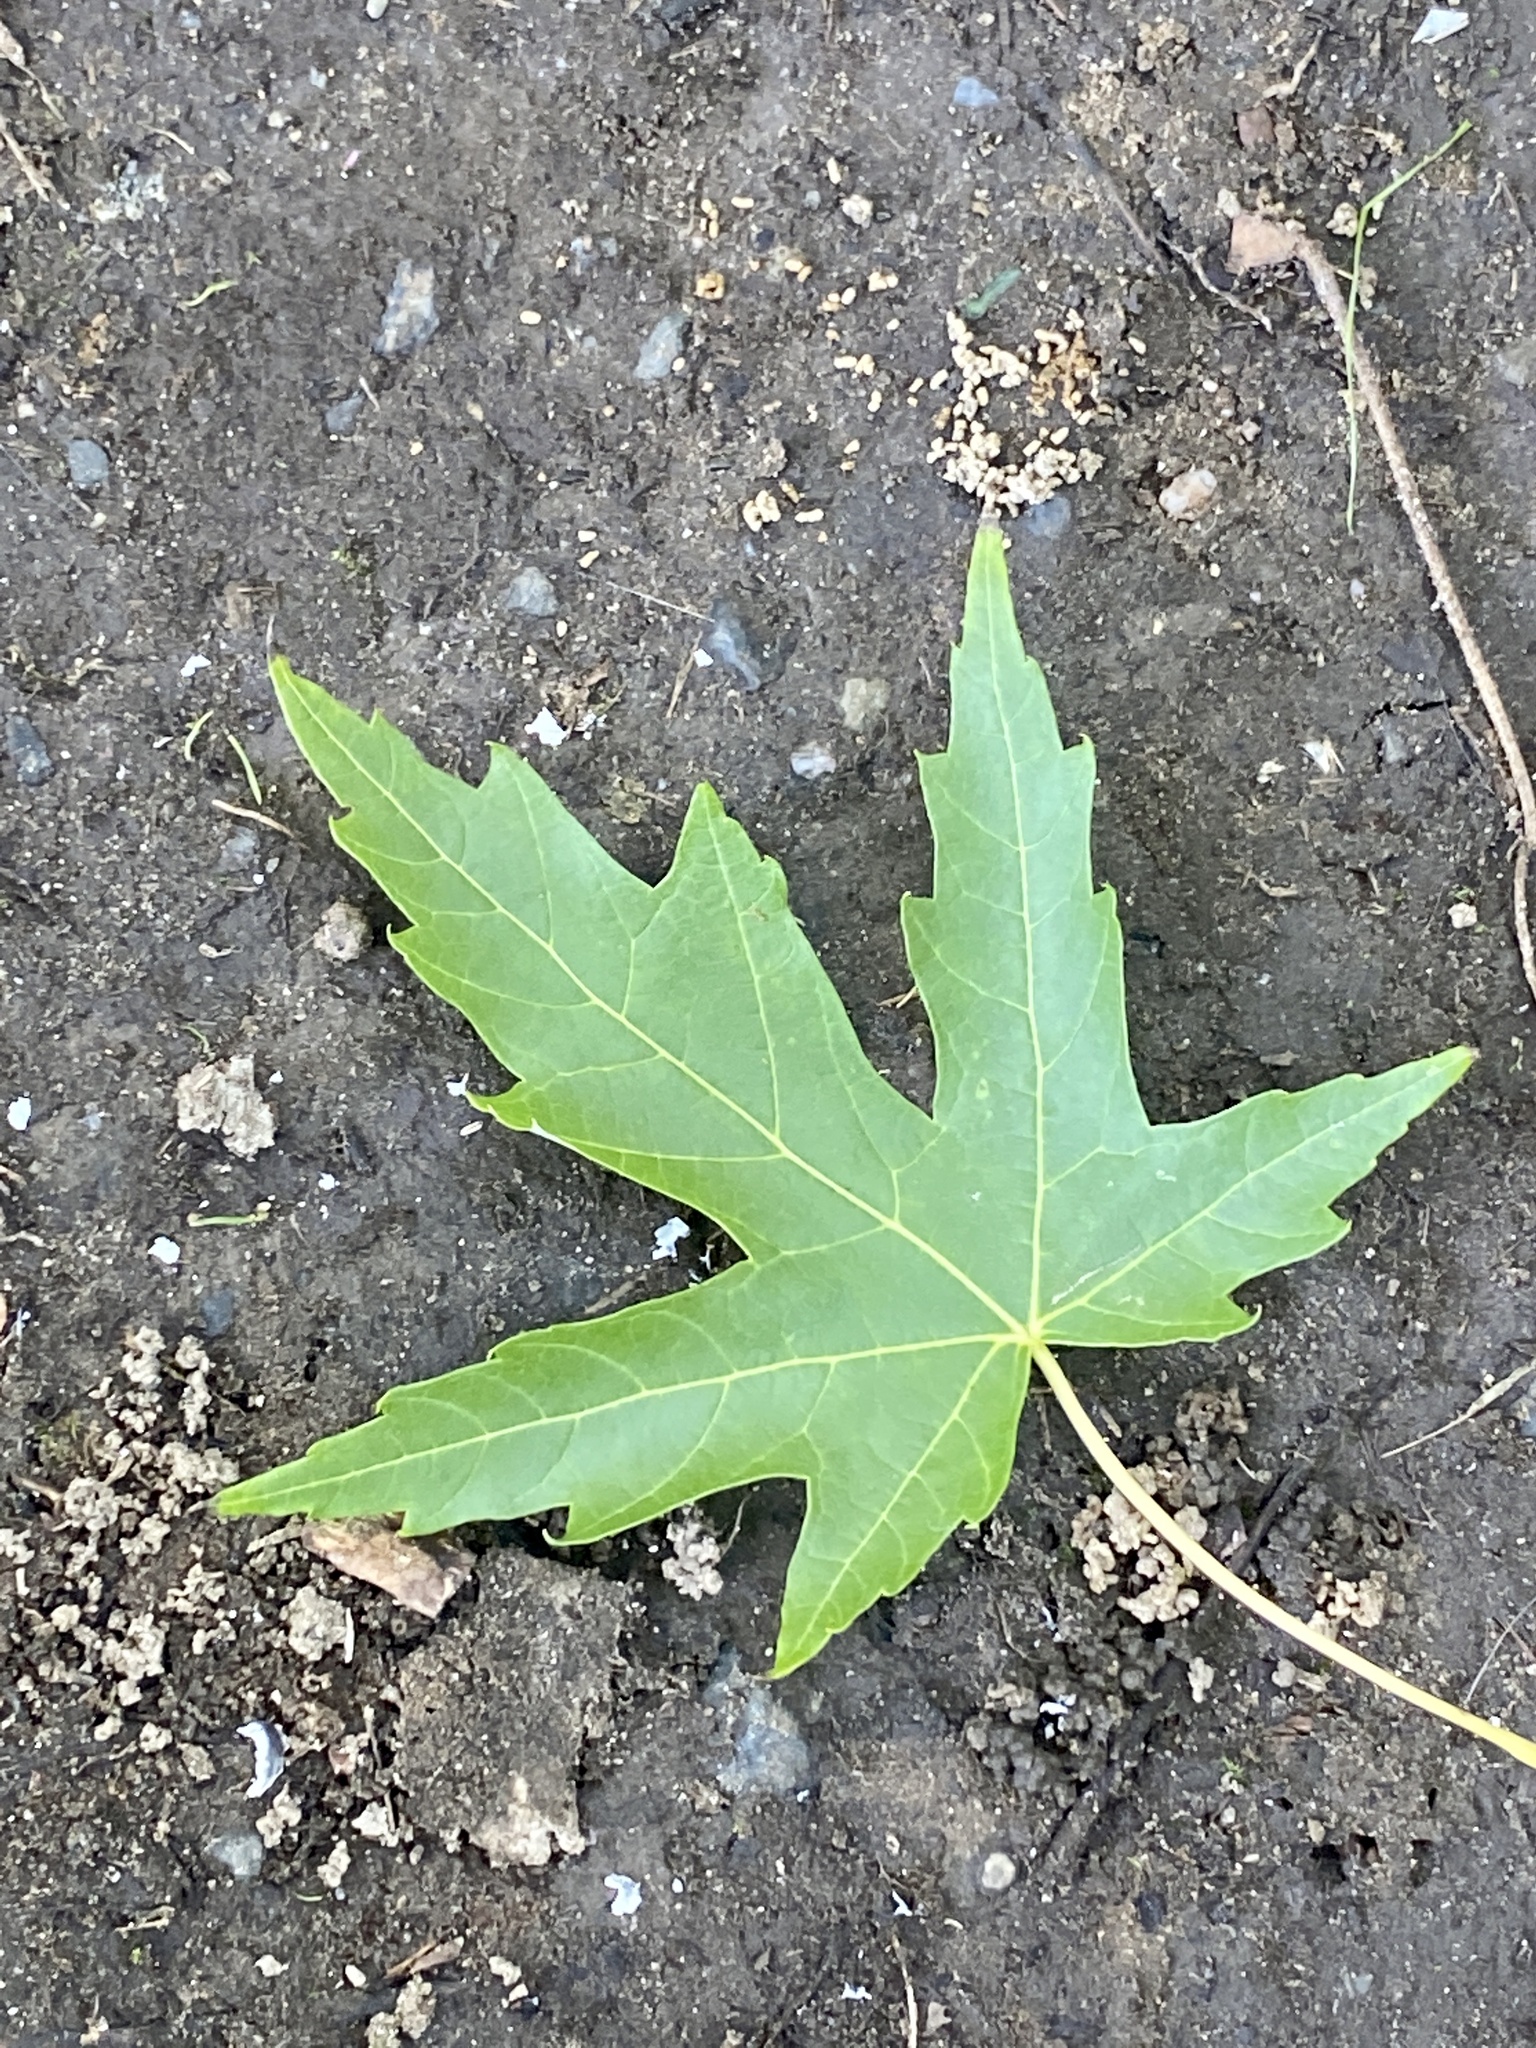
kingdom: Plantae
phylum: Tracheophyta
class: Magnoliopsida
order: Sapindales
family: Sapindaceae
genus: Acer
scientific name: Acer saccharinum
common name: Silver maple
